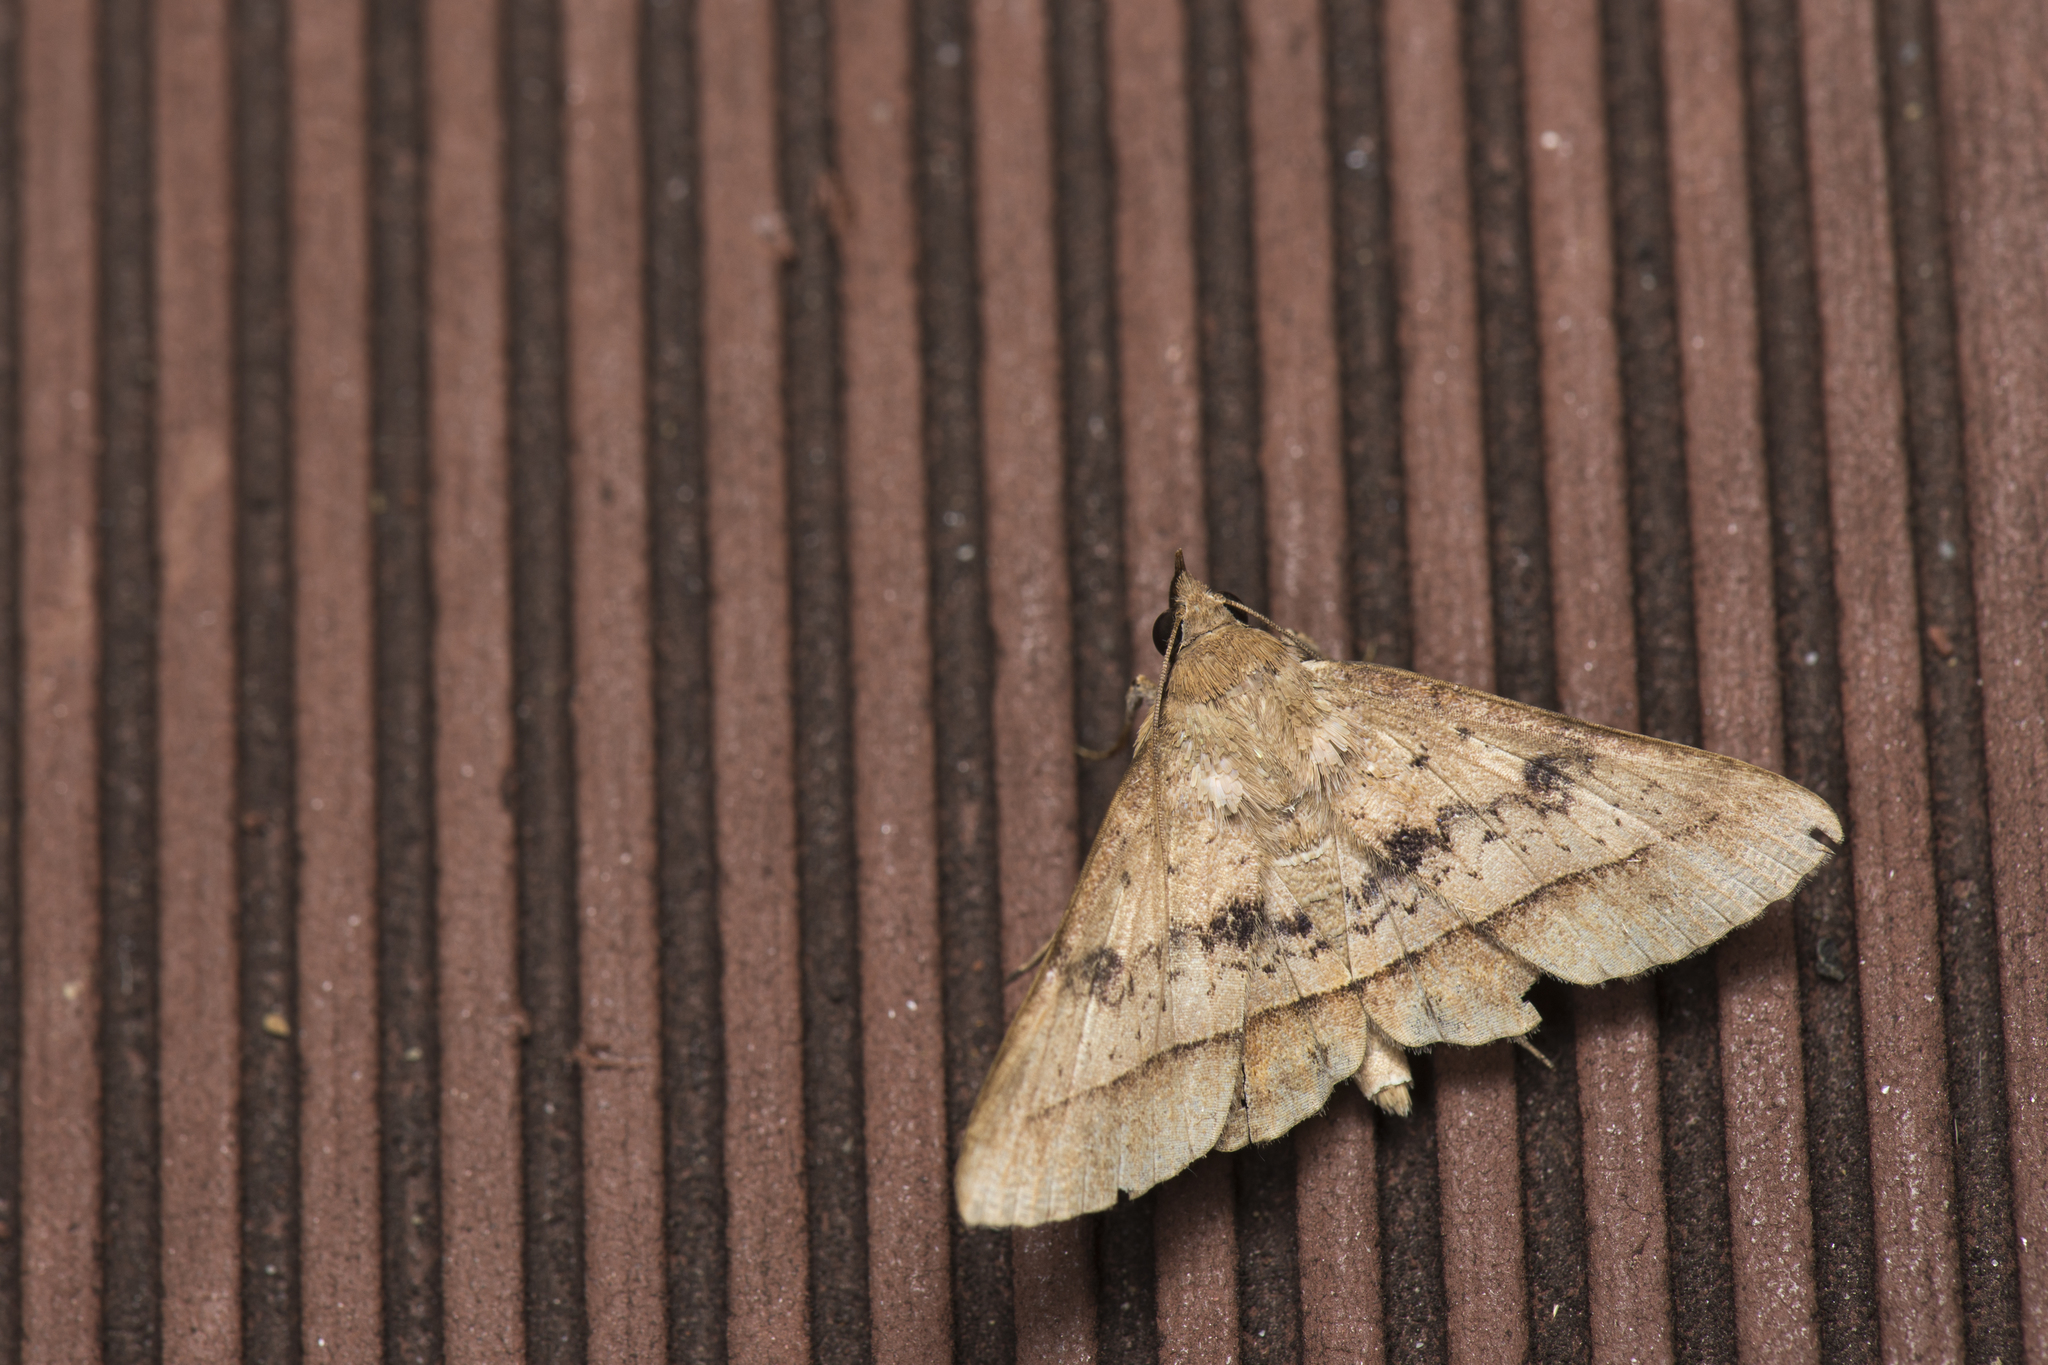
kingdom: Animalia
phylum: Arthropoda
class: Insecta
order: Lepidoptera
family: Erebidae
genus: Hypospila
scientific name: Hypospila bolinoides
